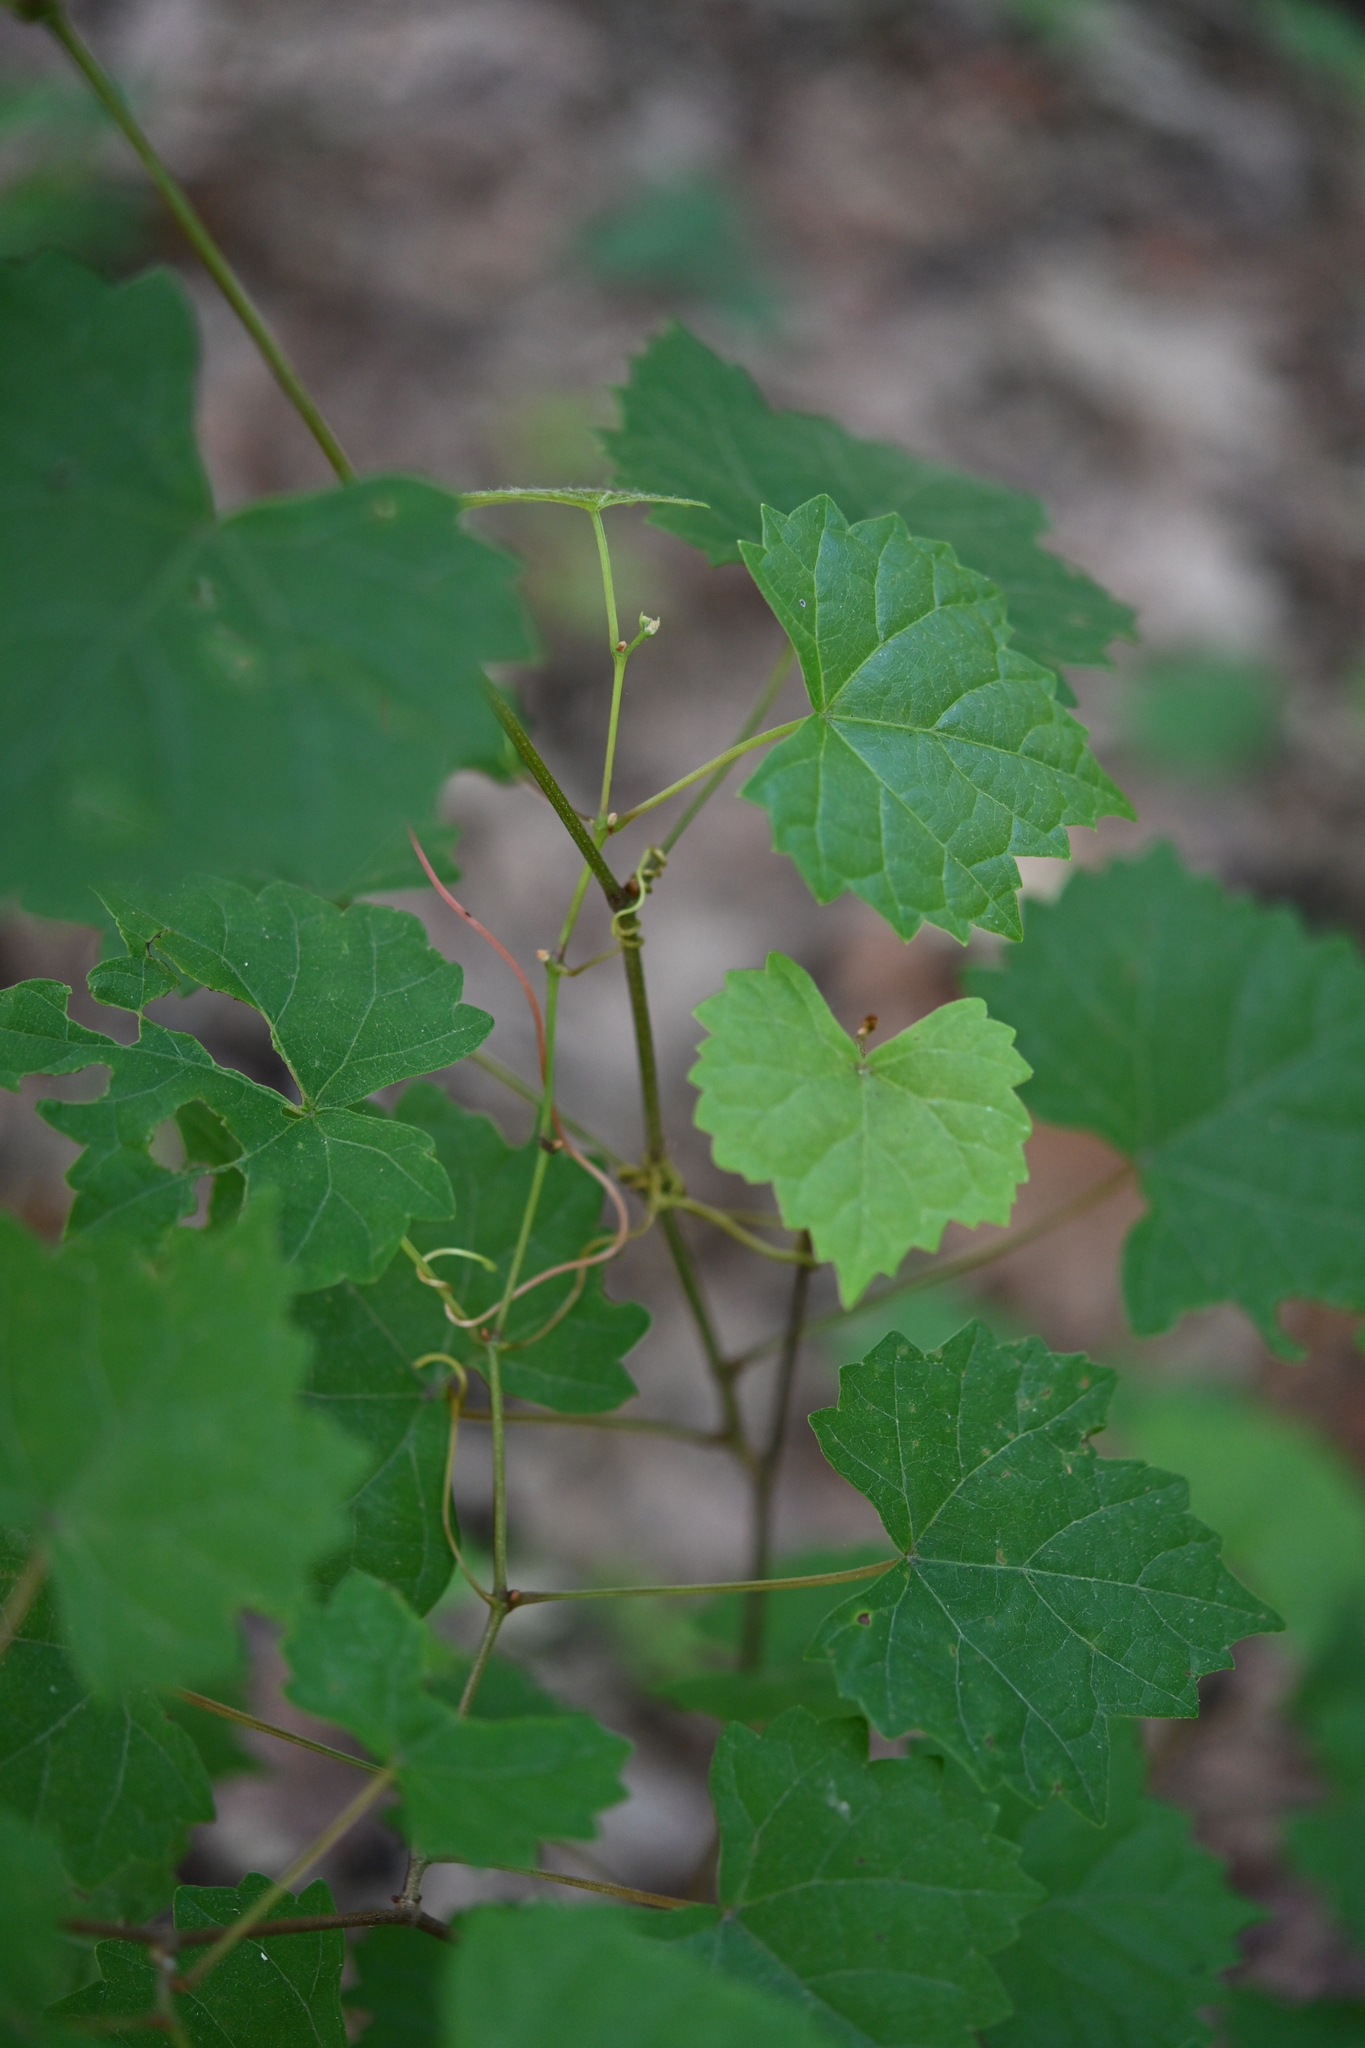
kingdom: Plantae
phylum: Tracheophyta
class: Magnoliopsida
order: Vitales
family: Vitaceae
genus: Vitis
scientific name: Vitis rotundifolia
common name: Muscadine grape
